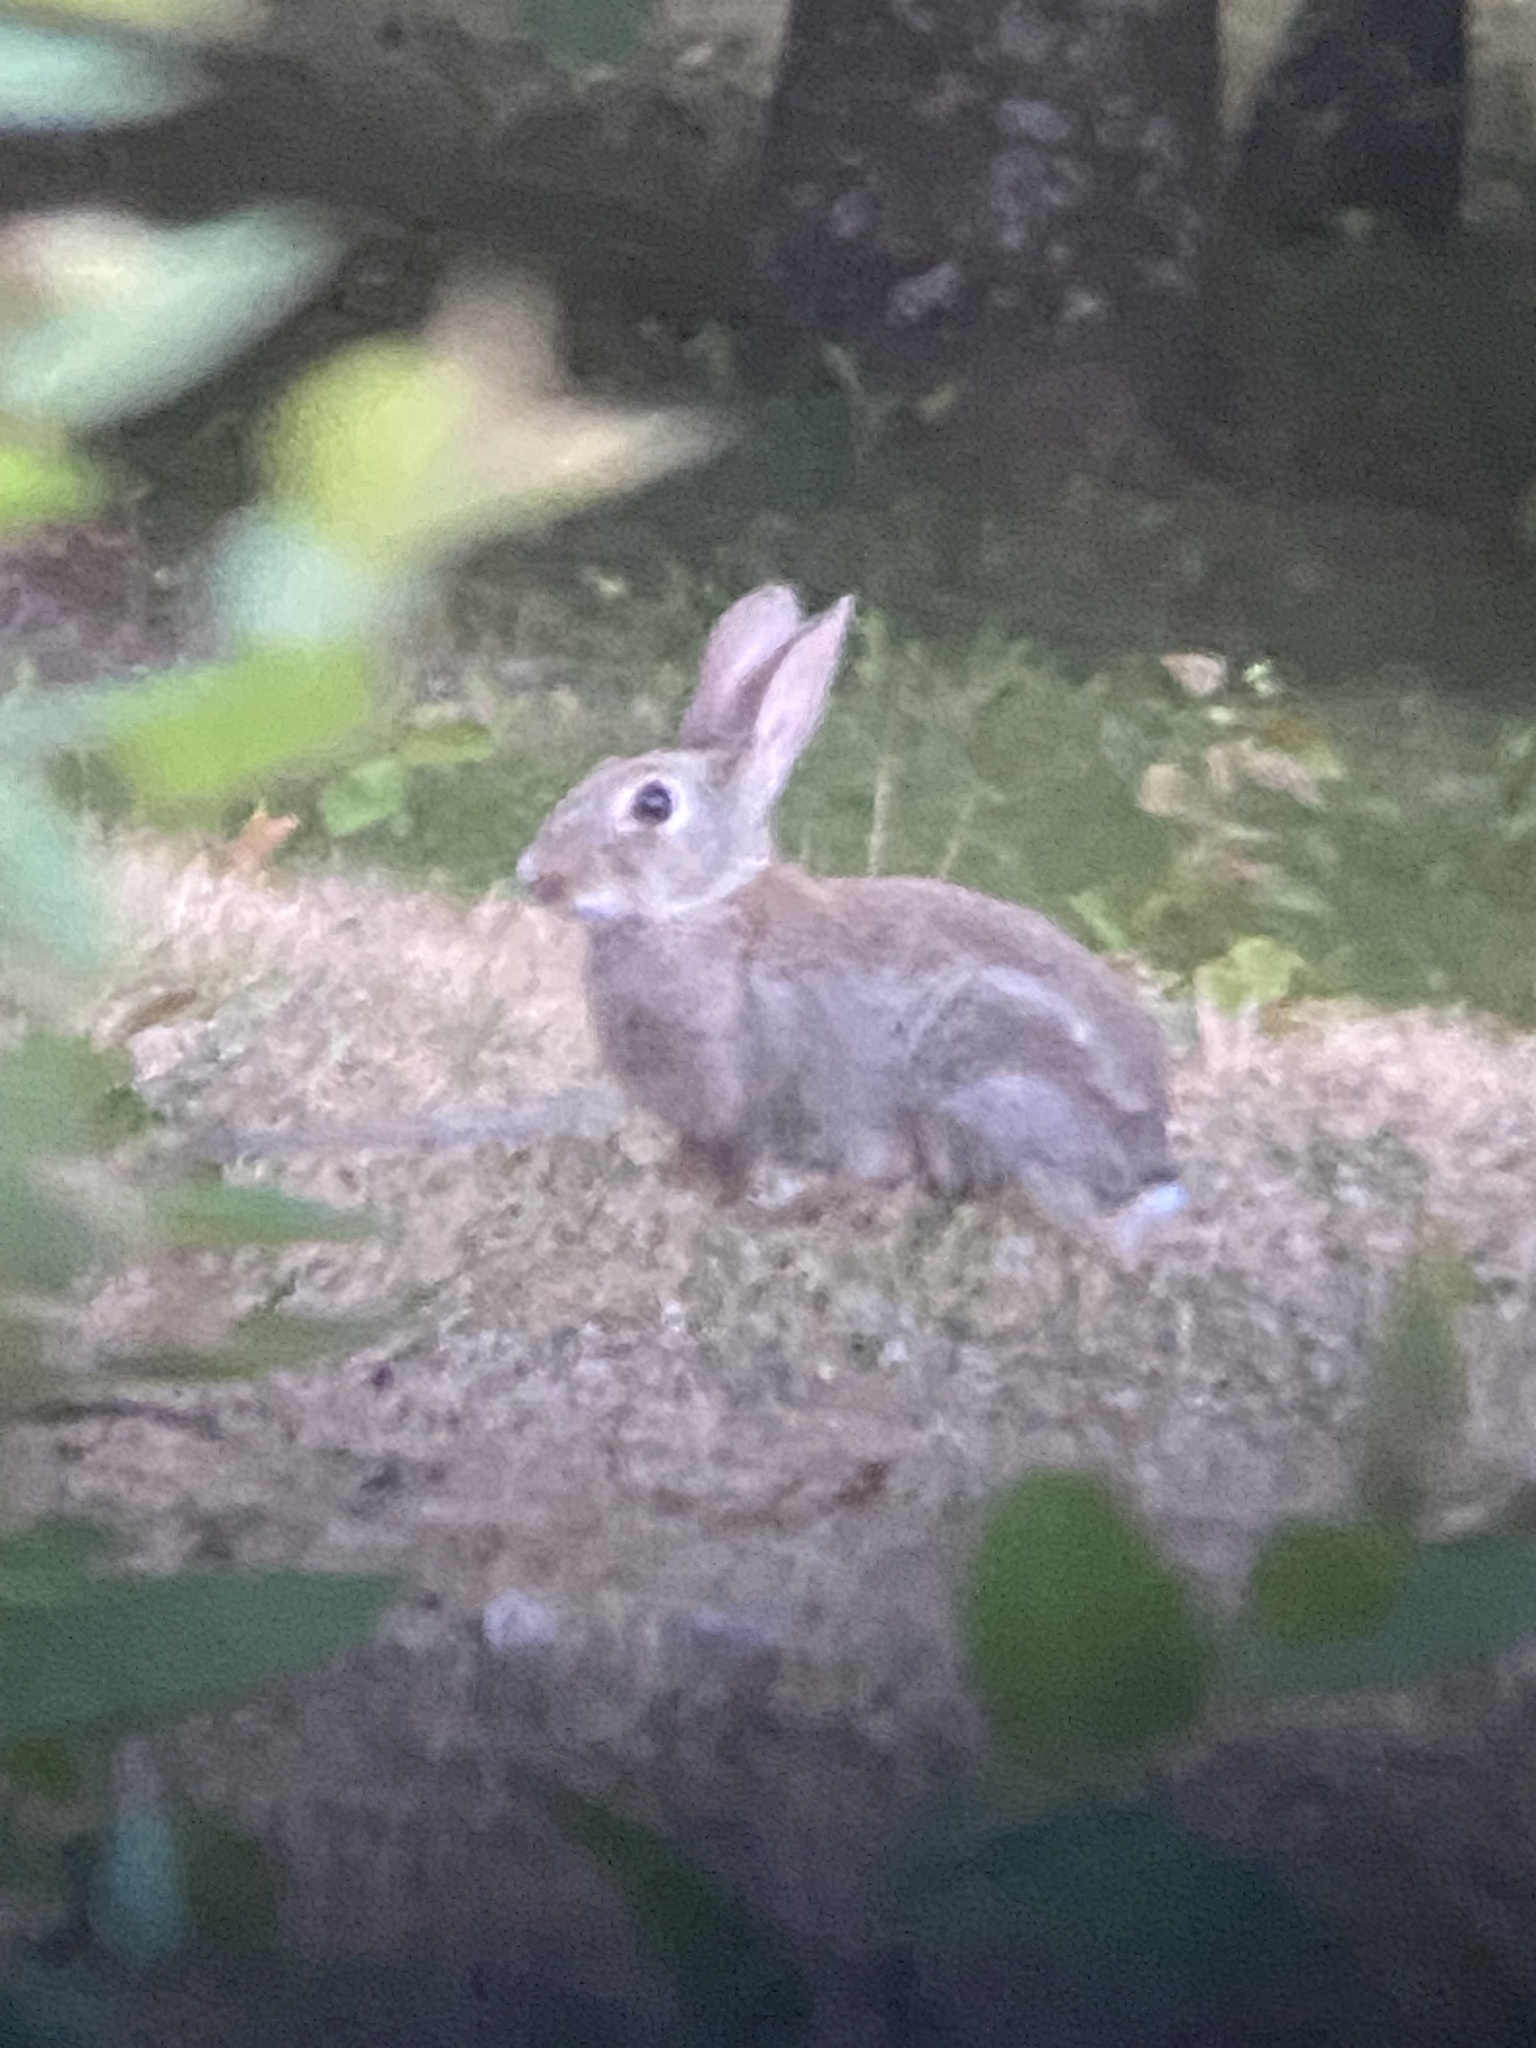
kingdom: Animalia
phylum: Chordata
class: Mammalia
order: Lagomorpha
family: Leporidae
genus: Oryctolagus
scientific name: Oryctolagus cuniculus
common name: European rabbit
